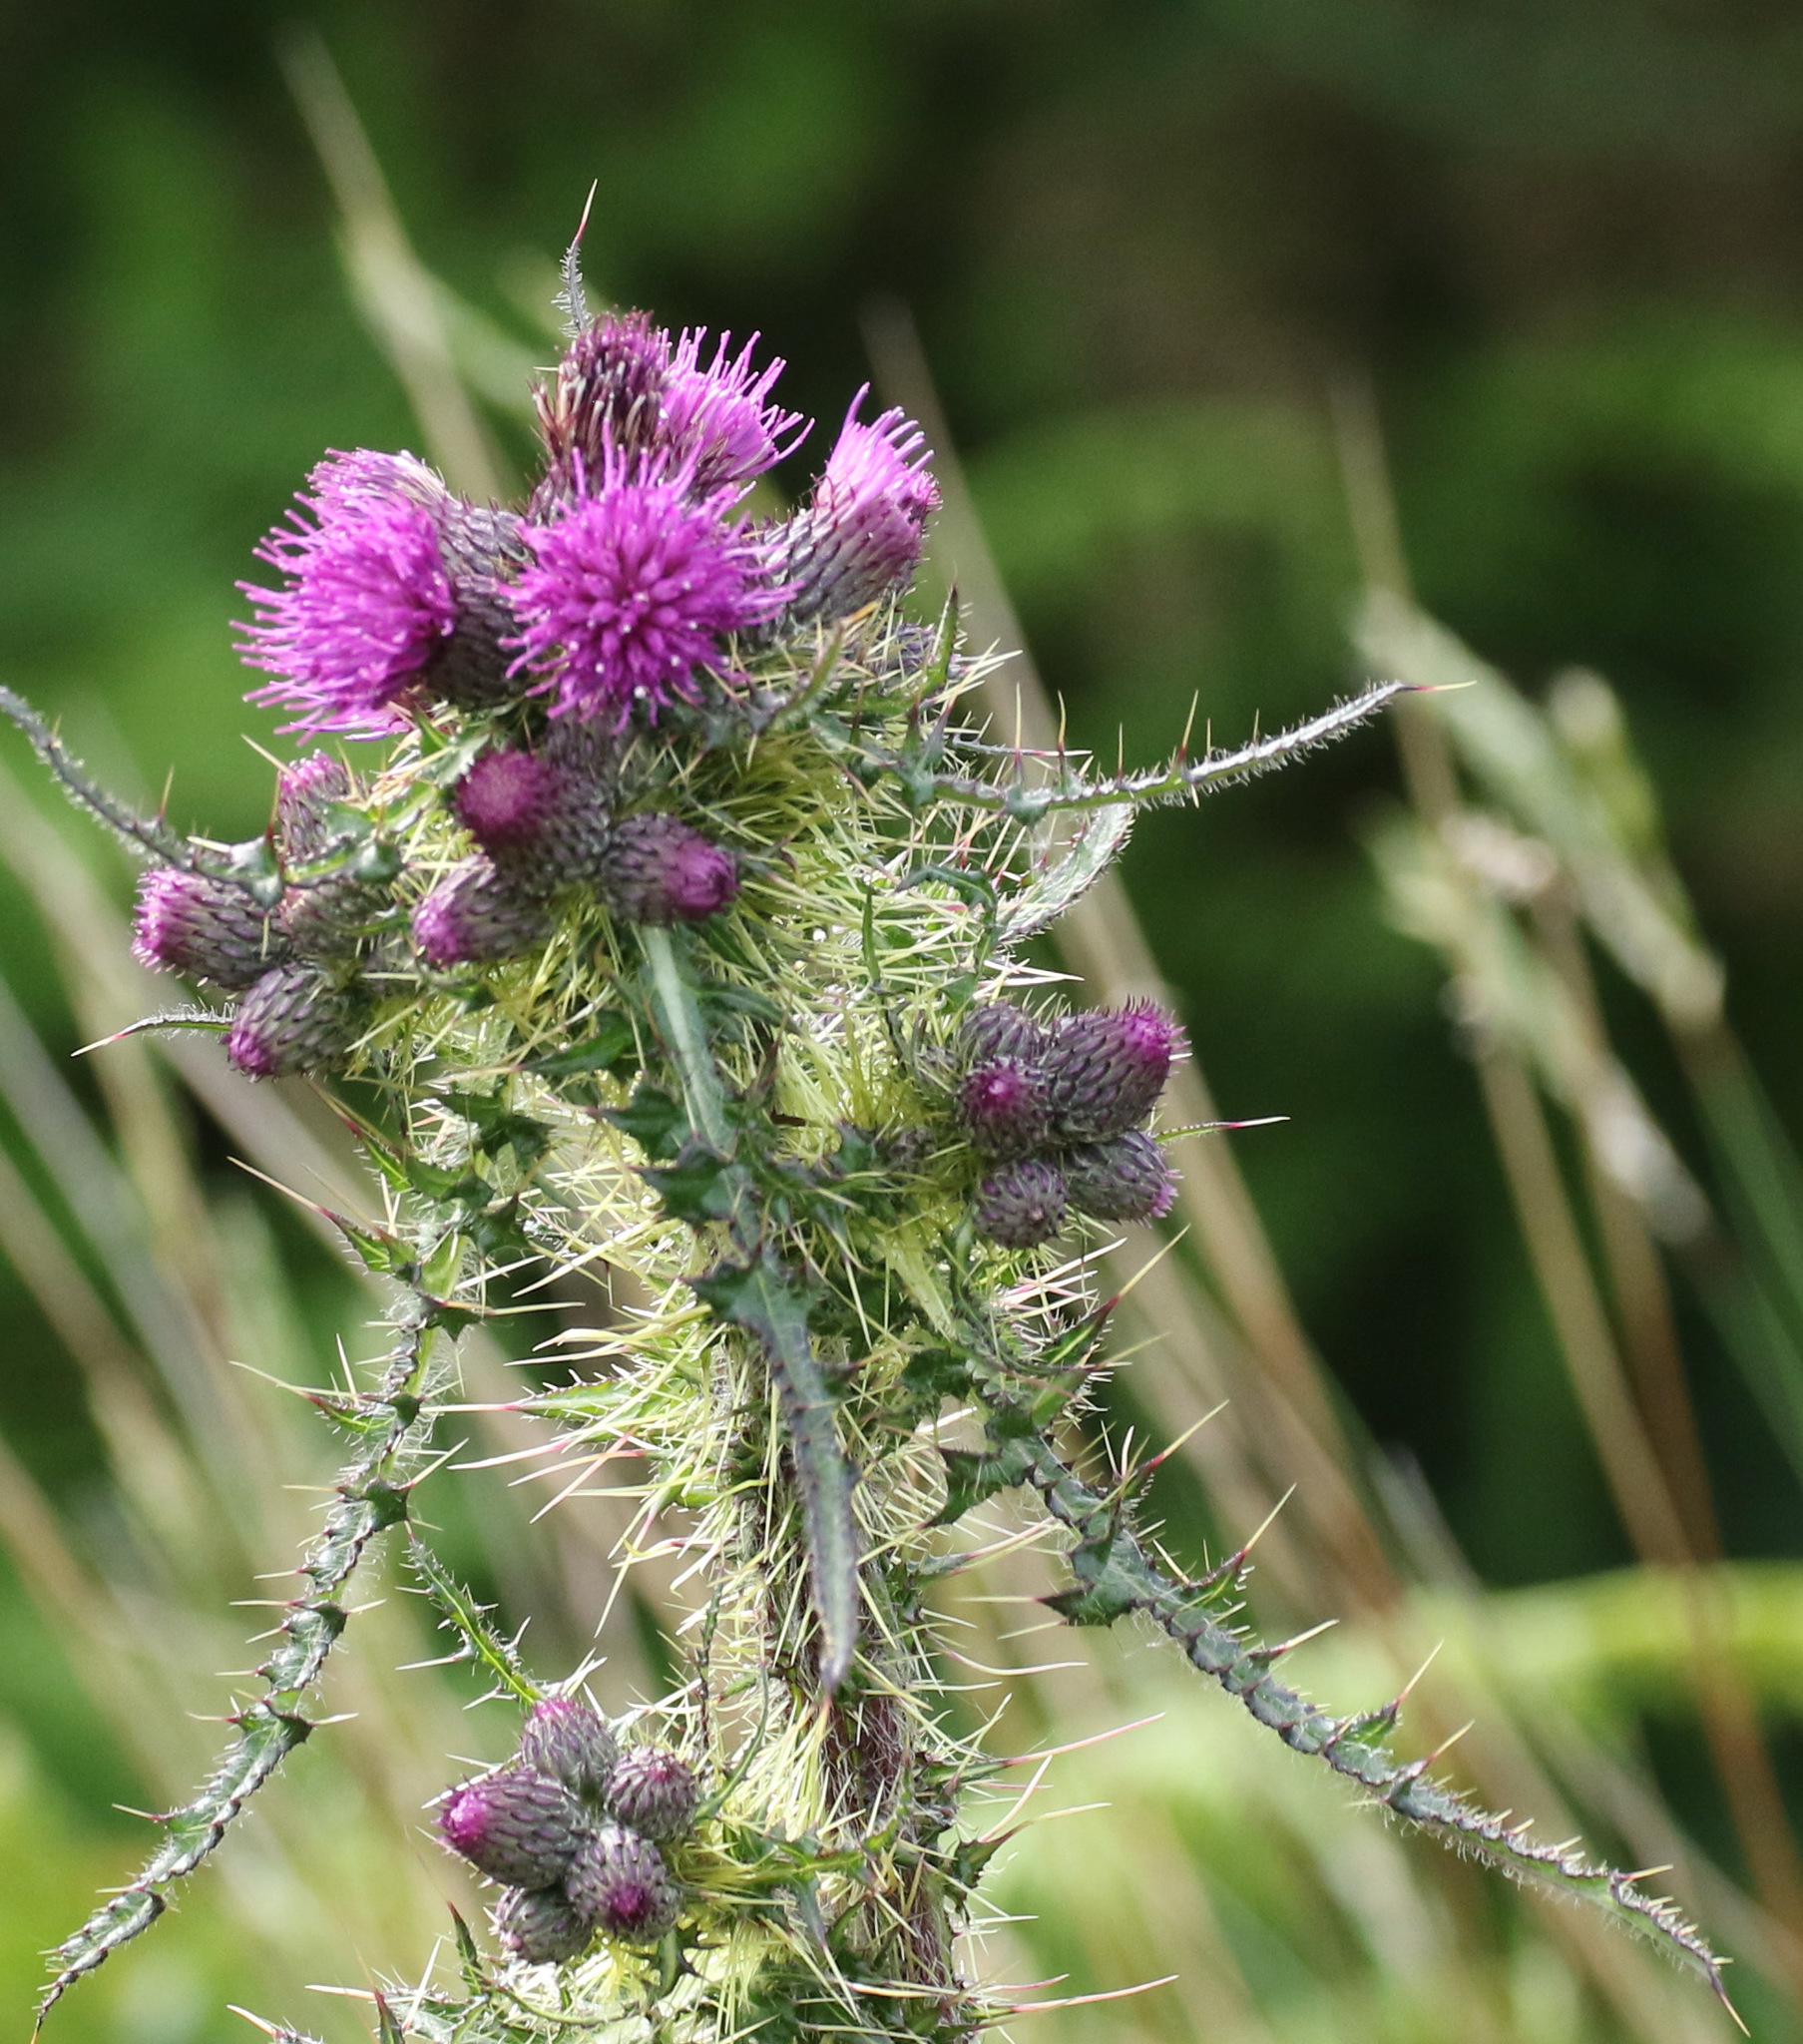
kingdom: Plantae
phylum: Tracheophyta
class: Magnoliopsida
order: Asterales
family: Asteraceae
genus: Cirsium
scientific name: Cirsium palustre
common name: Marsh thistle
